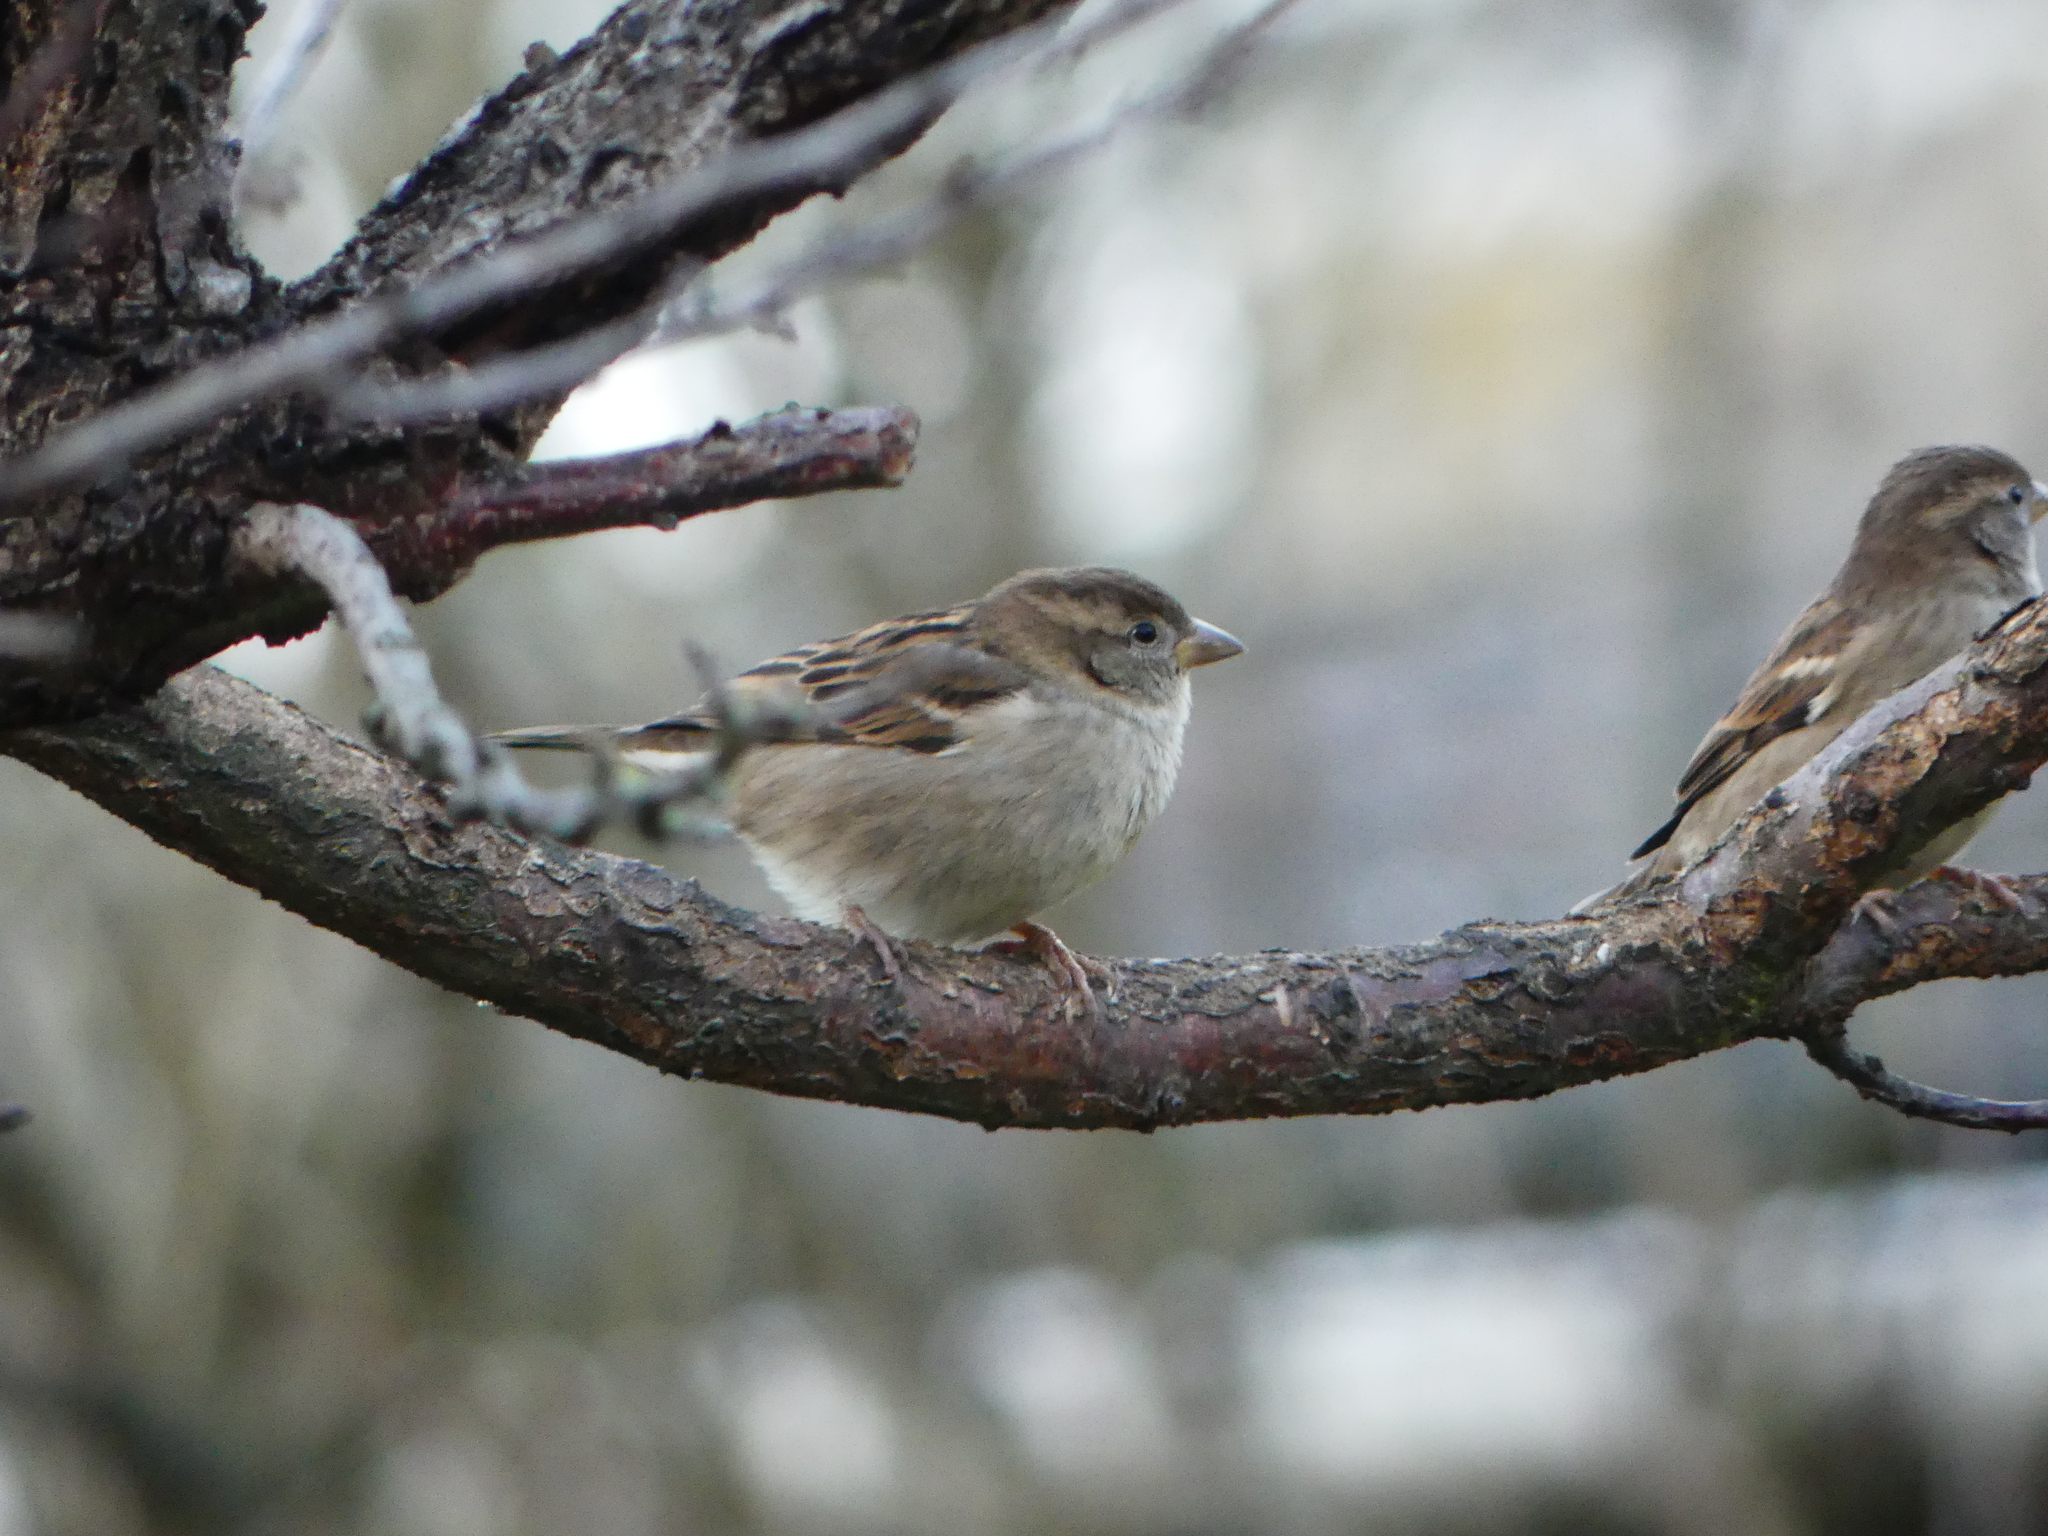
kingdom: Animalia
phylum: Chordata
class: Aves
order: Passeriformes
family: Passeridae
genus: Passer
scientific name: Passer domesticus
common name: House sparrow
